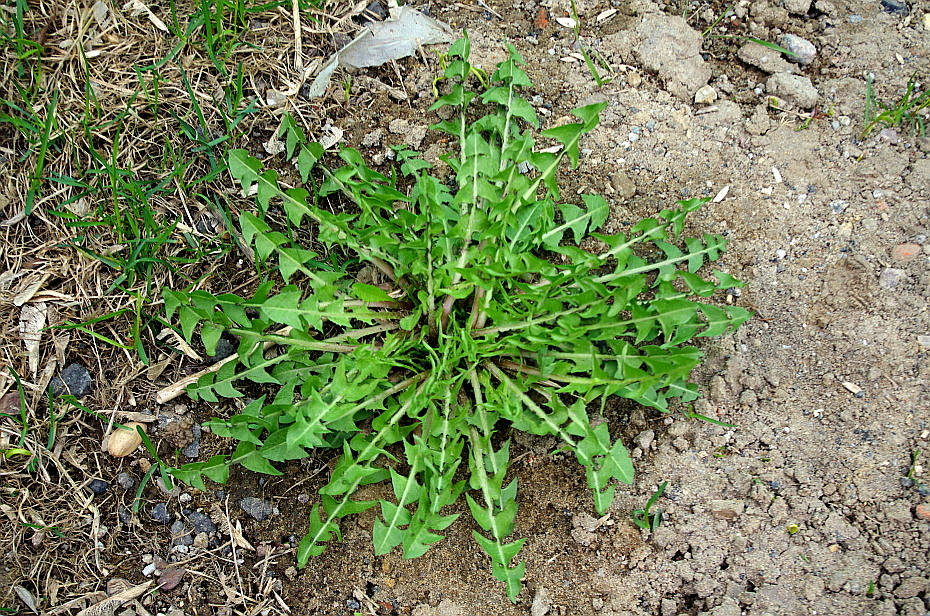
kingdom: Plantae
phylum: Tracheophyta
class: Magnoliopsida
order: Asterales
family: Asteraceae
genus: Taraxacum
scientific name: Taraxacum officinale
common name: Common dandelion
